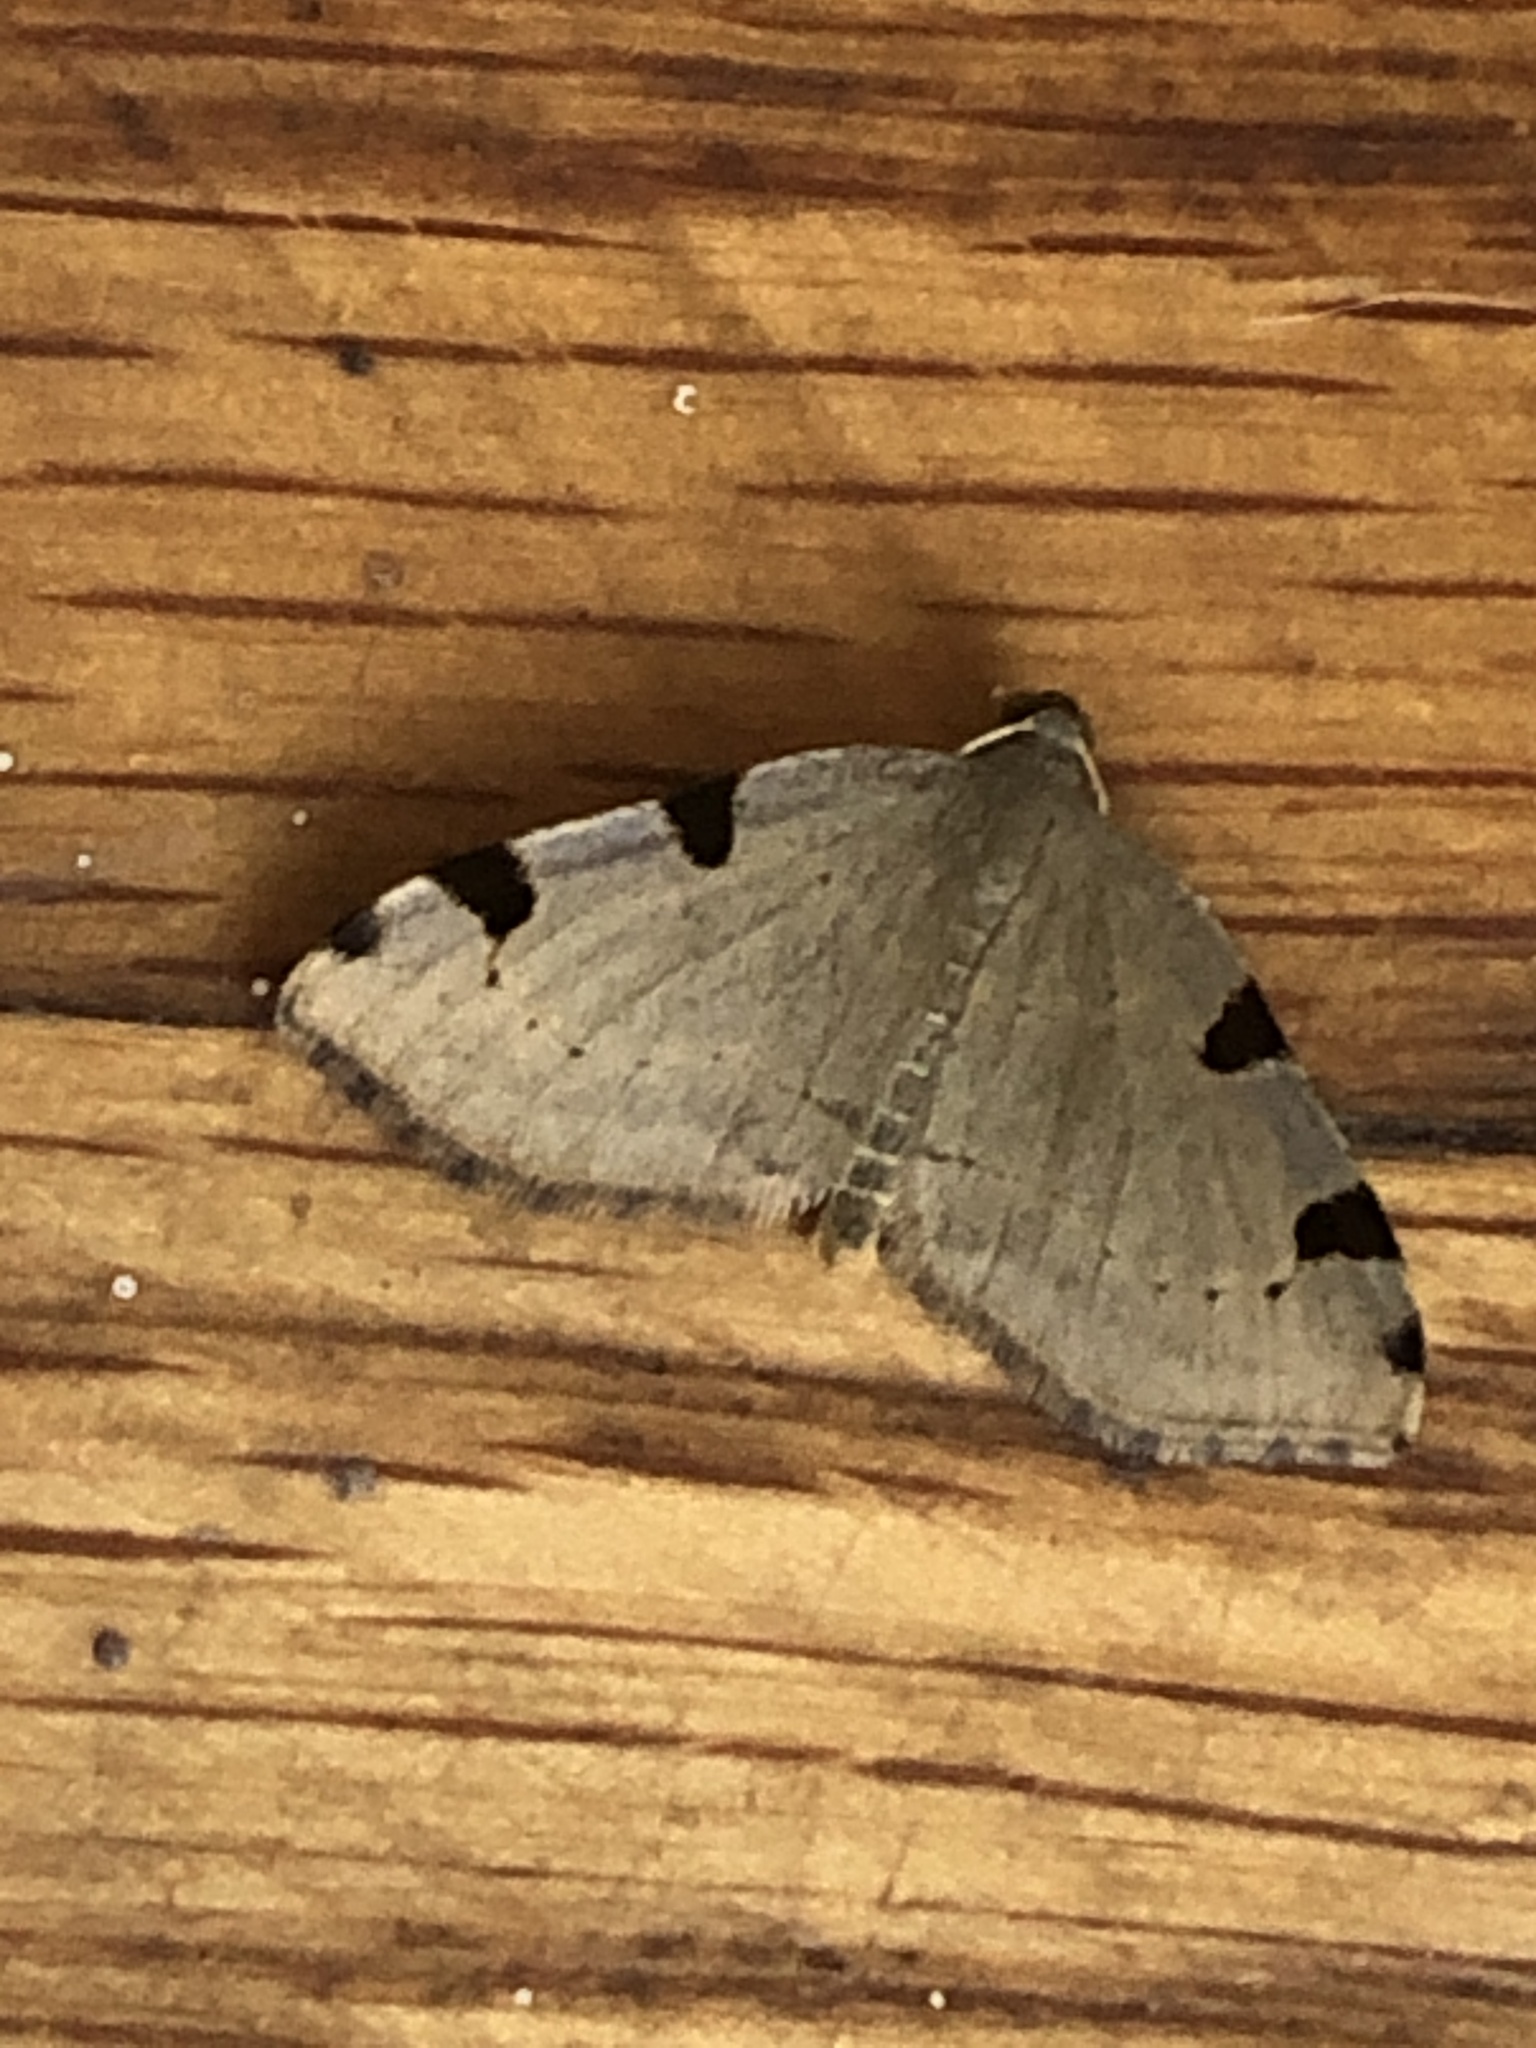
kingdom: Animalia
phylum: Arthropoda
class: Insecta
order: Lepidoptera
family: Geometridae
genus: Heterophleps
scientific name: Heterophleps triguttaria
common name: Three-spotted fillip
